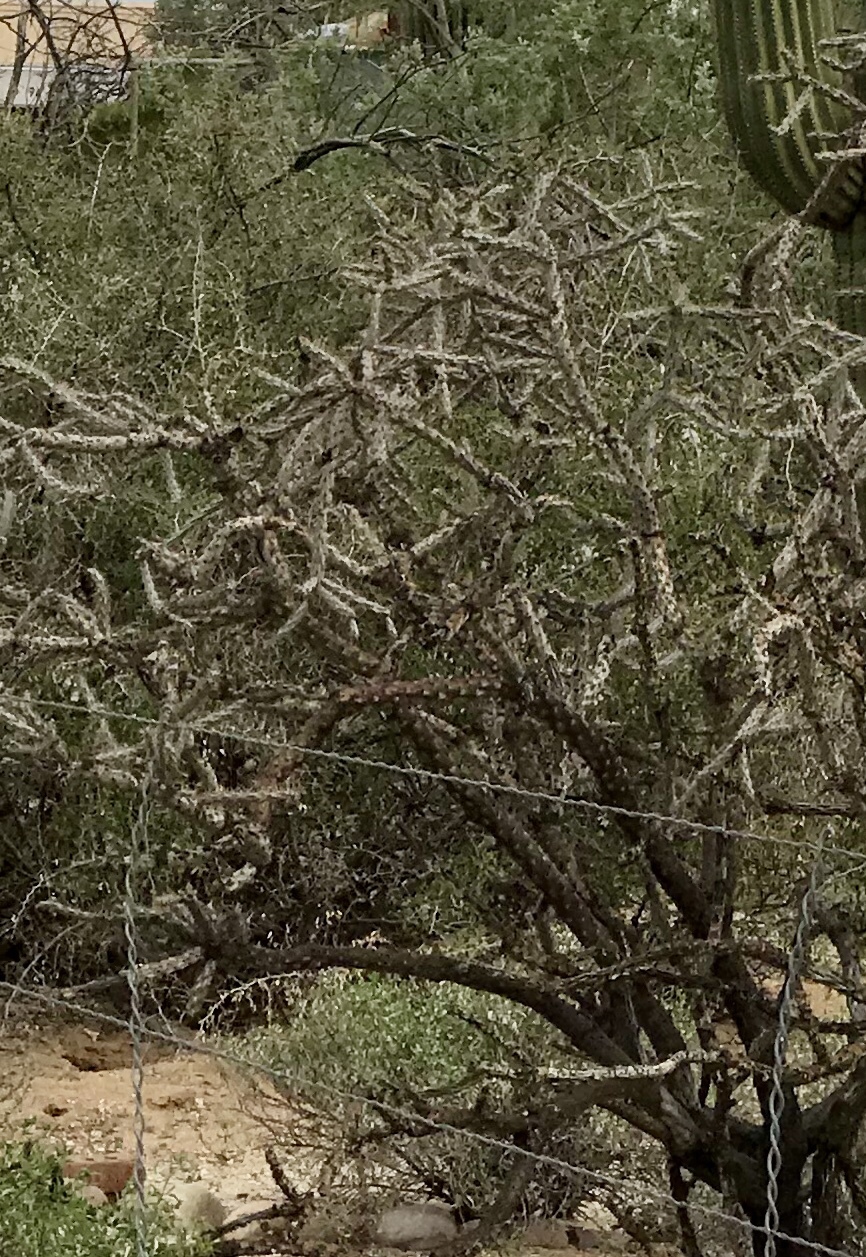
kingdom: Plantae
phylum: Tracheophyta
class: Magnoliopsida
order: Caryophyllales
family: Cactaceae
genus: Cylindropuntia
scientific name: Cylindropuntia thurberi
